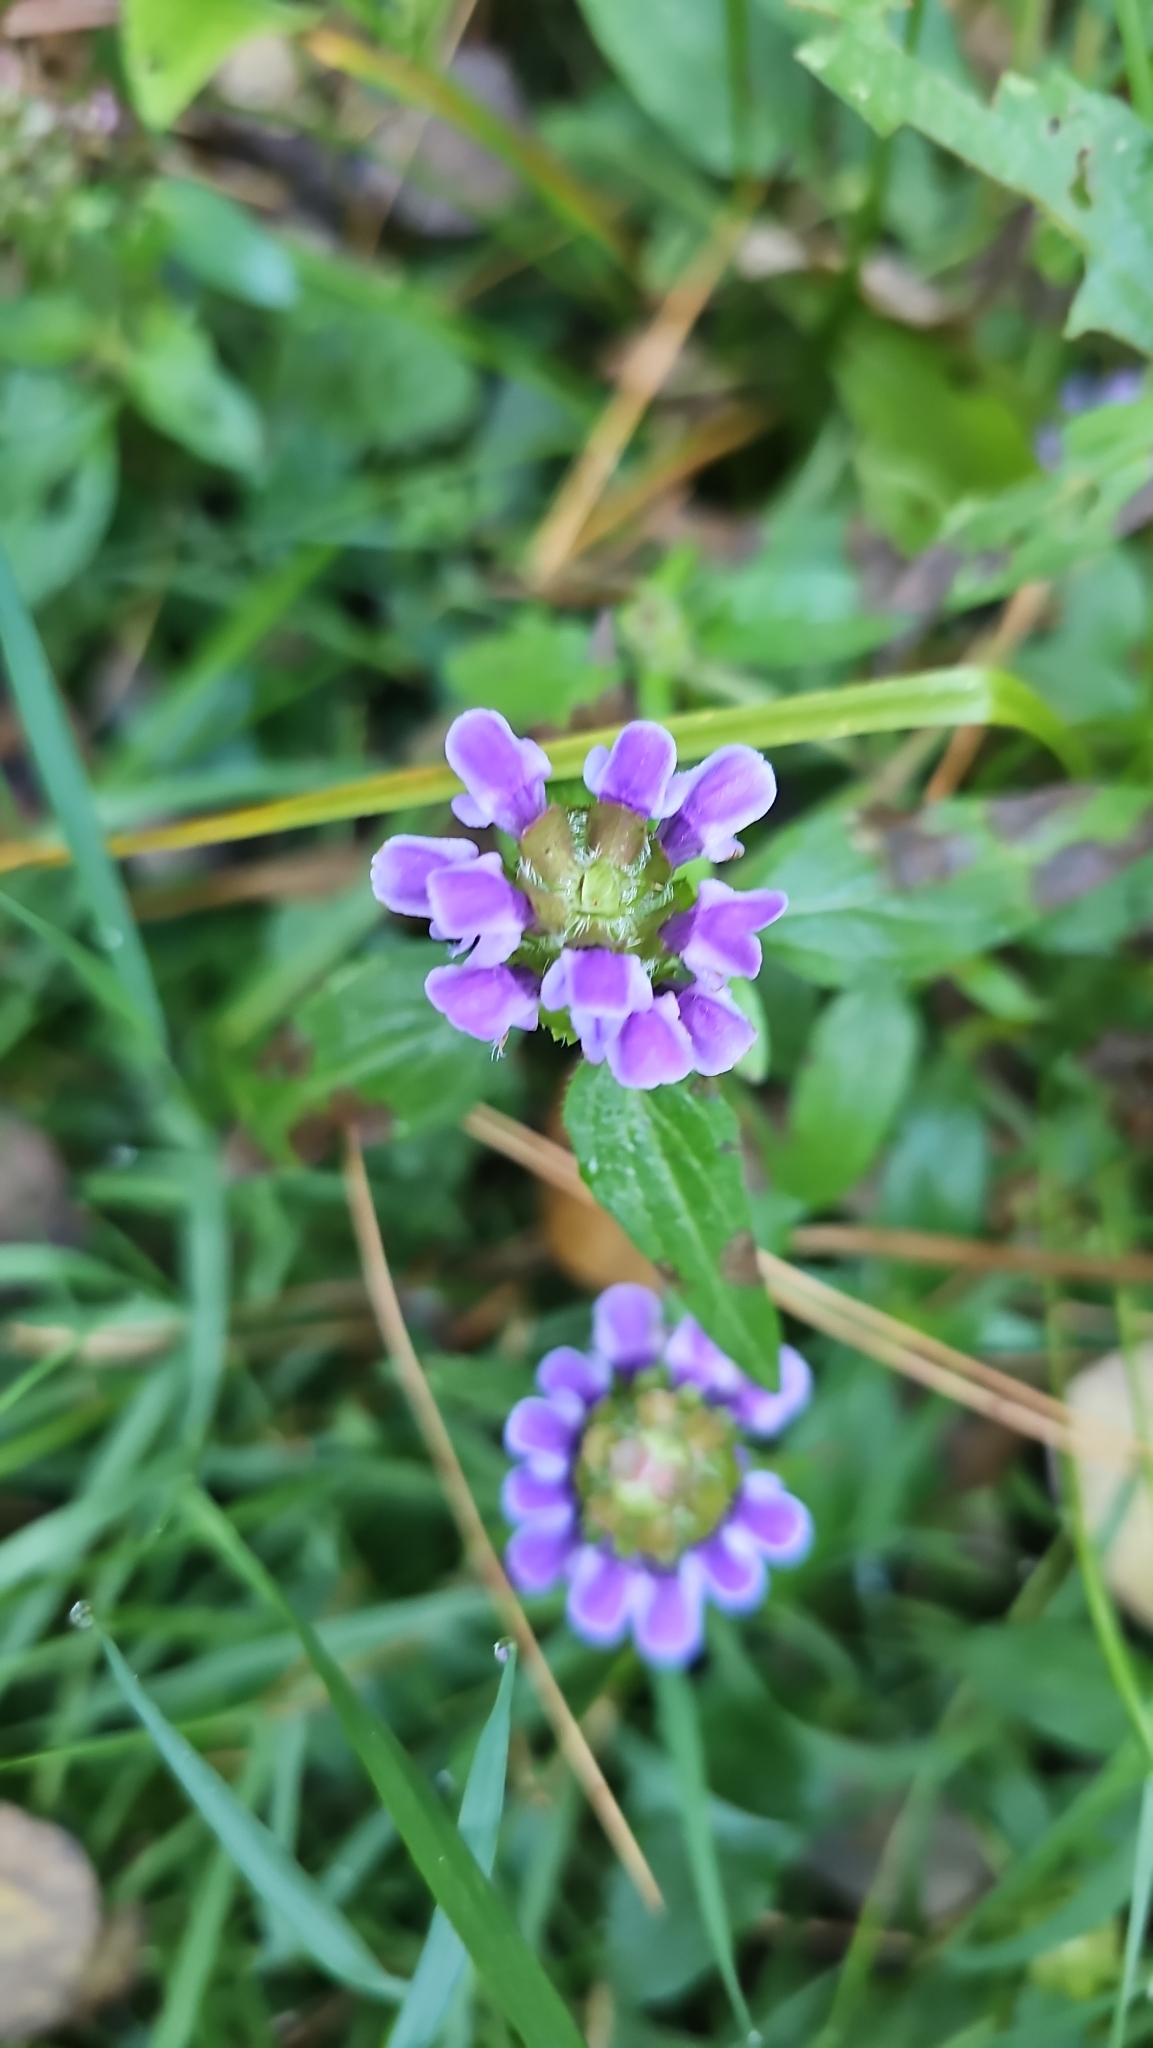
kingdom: Plantae
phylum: Tracheophyta
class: Magnoliopsida
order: Lamiales
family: Lamiaceae
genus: Prunella
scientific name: Prunella vulgaris
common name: Heal-all
